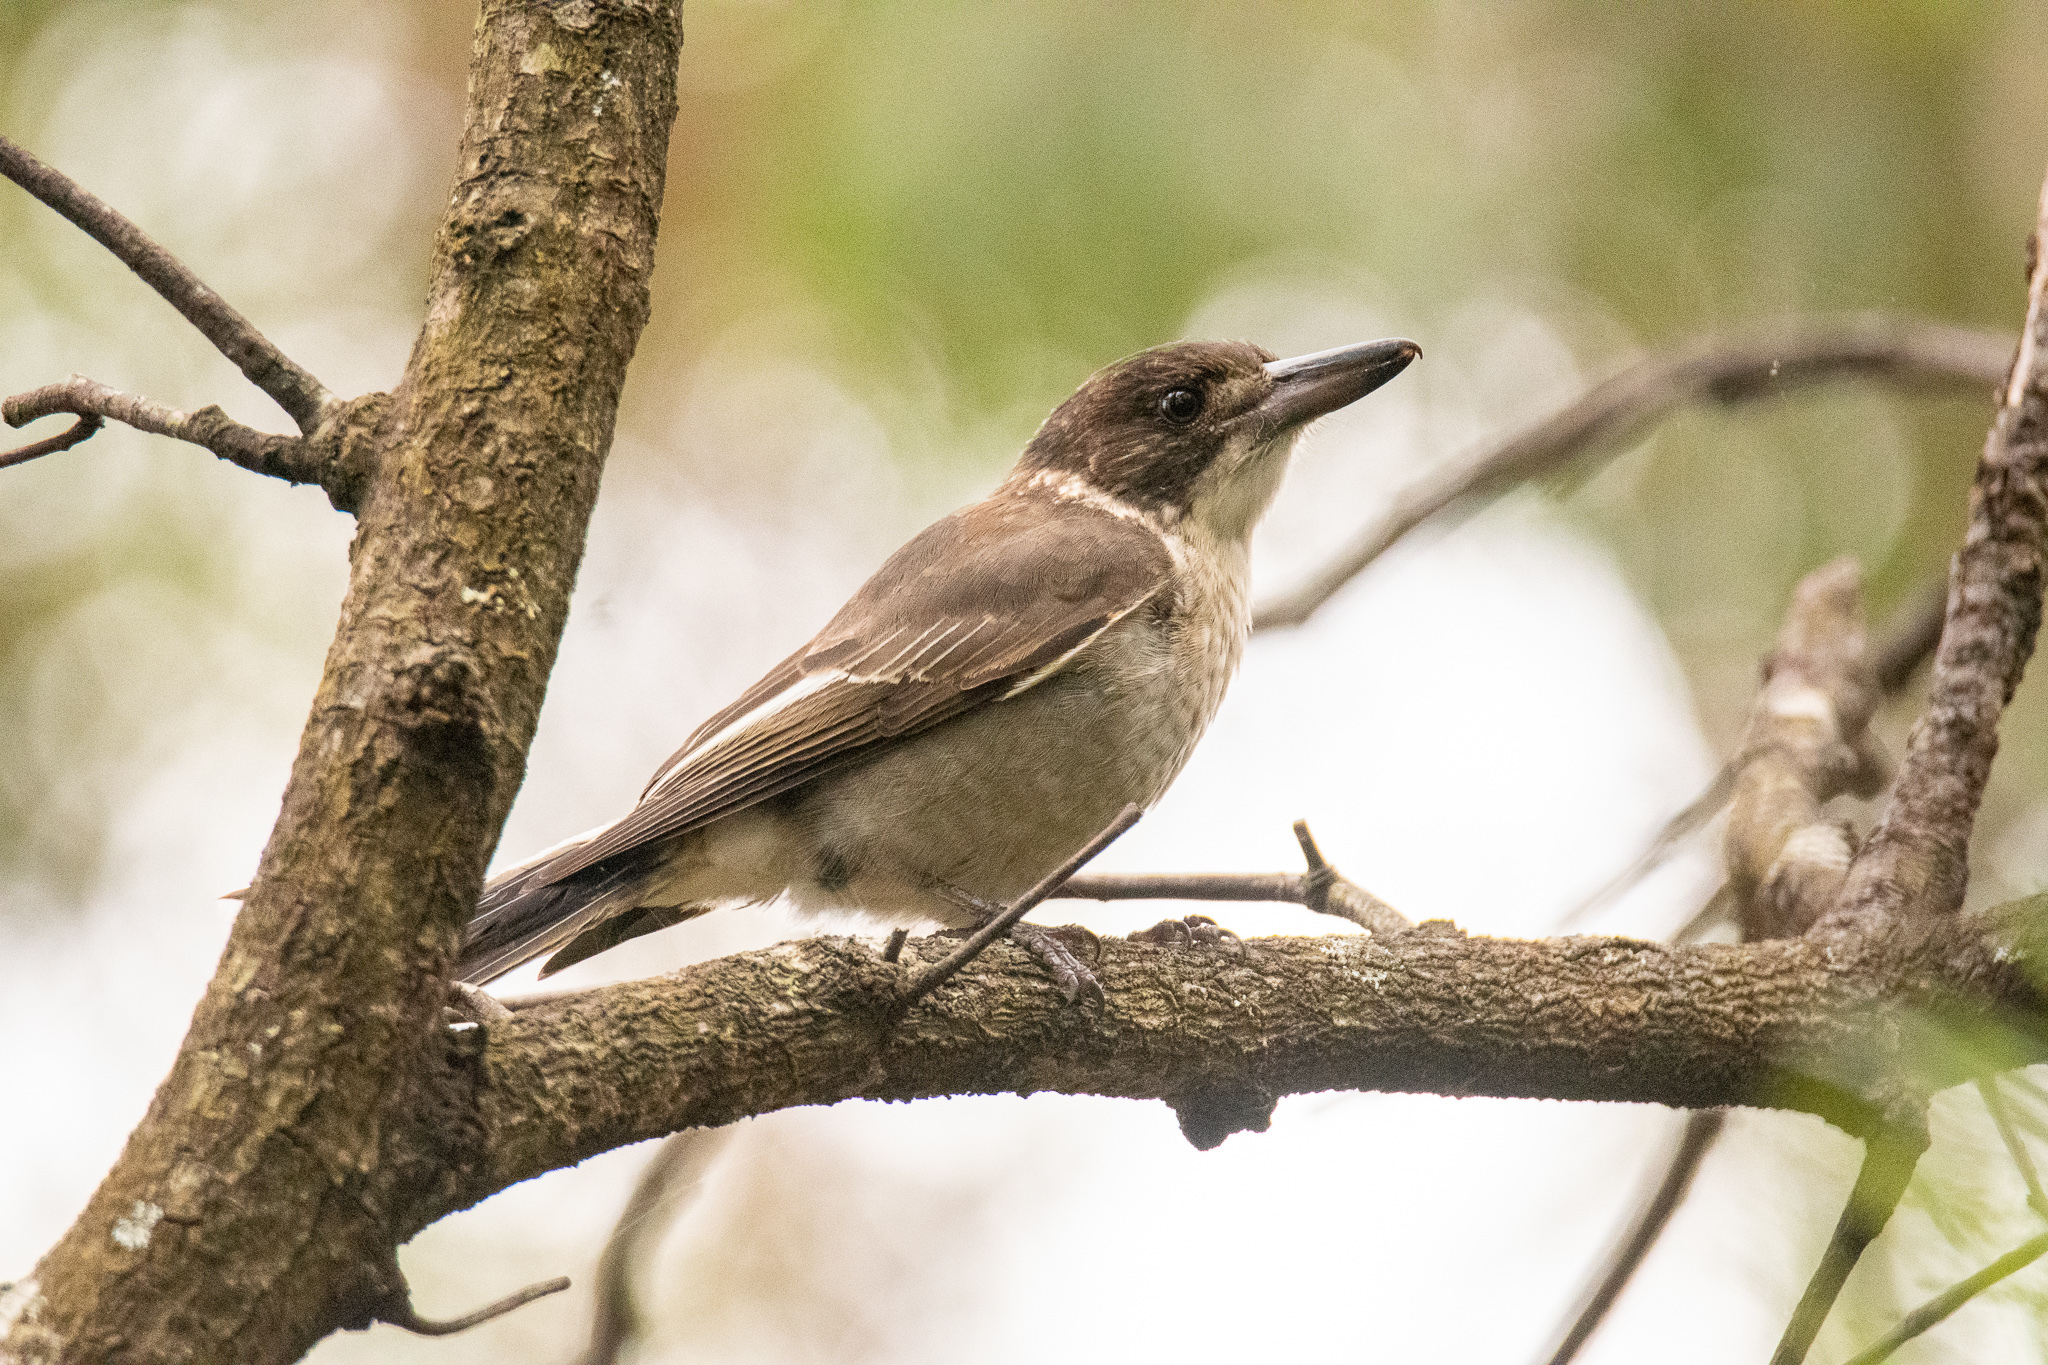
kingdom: Animalia
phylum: Chordata
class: Aves
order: Passeriformes
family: Cracticidae
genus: Cracticus
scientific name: Cracticus torquatus
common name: Grey butcherbird
